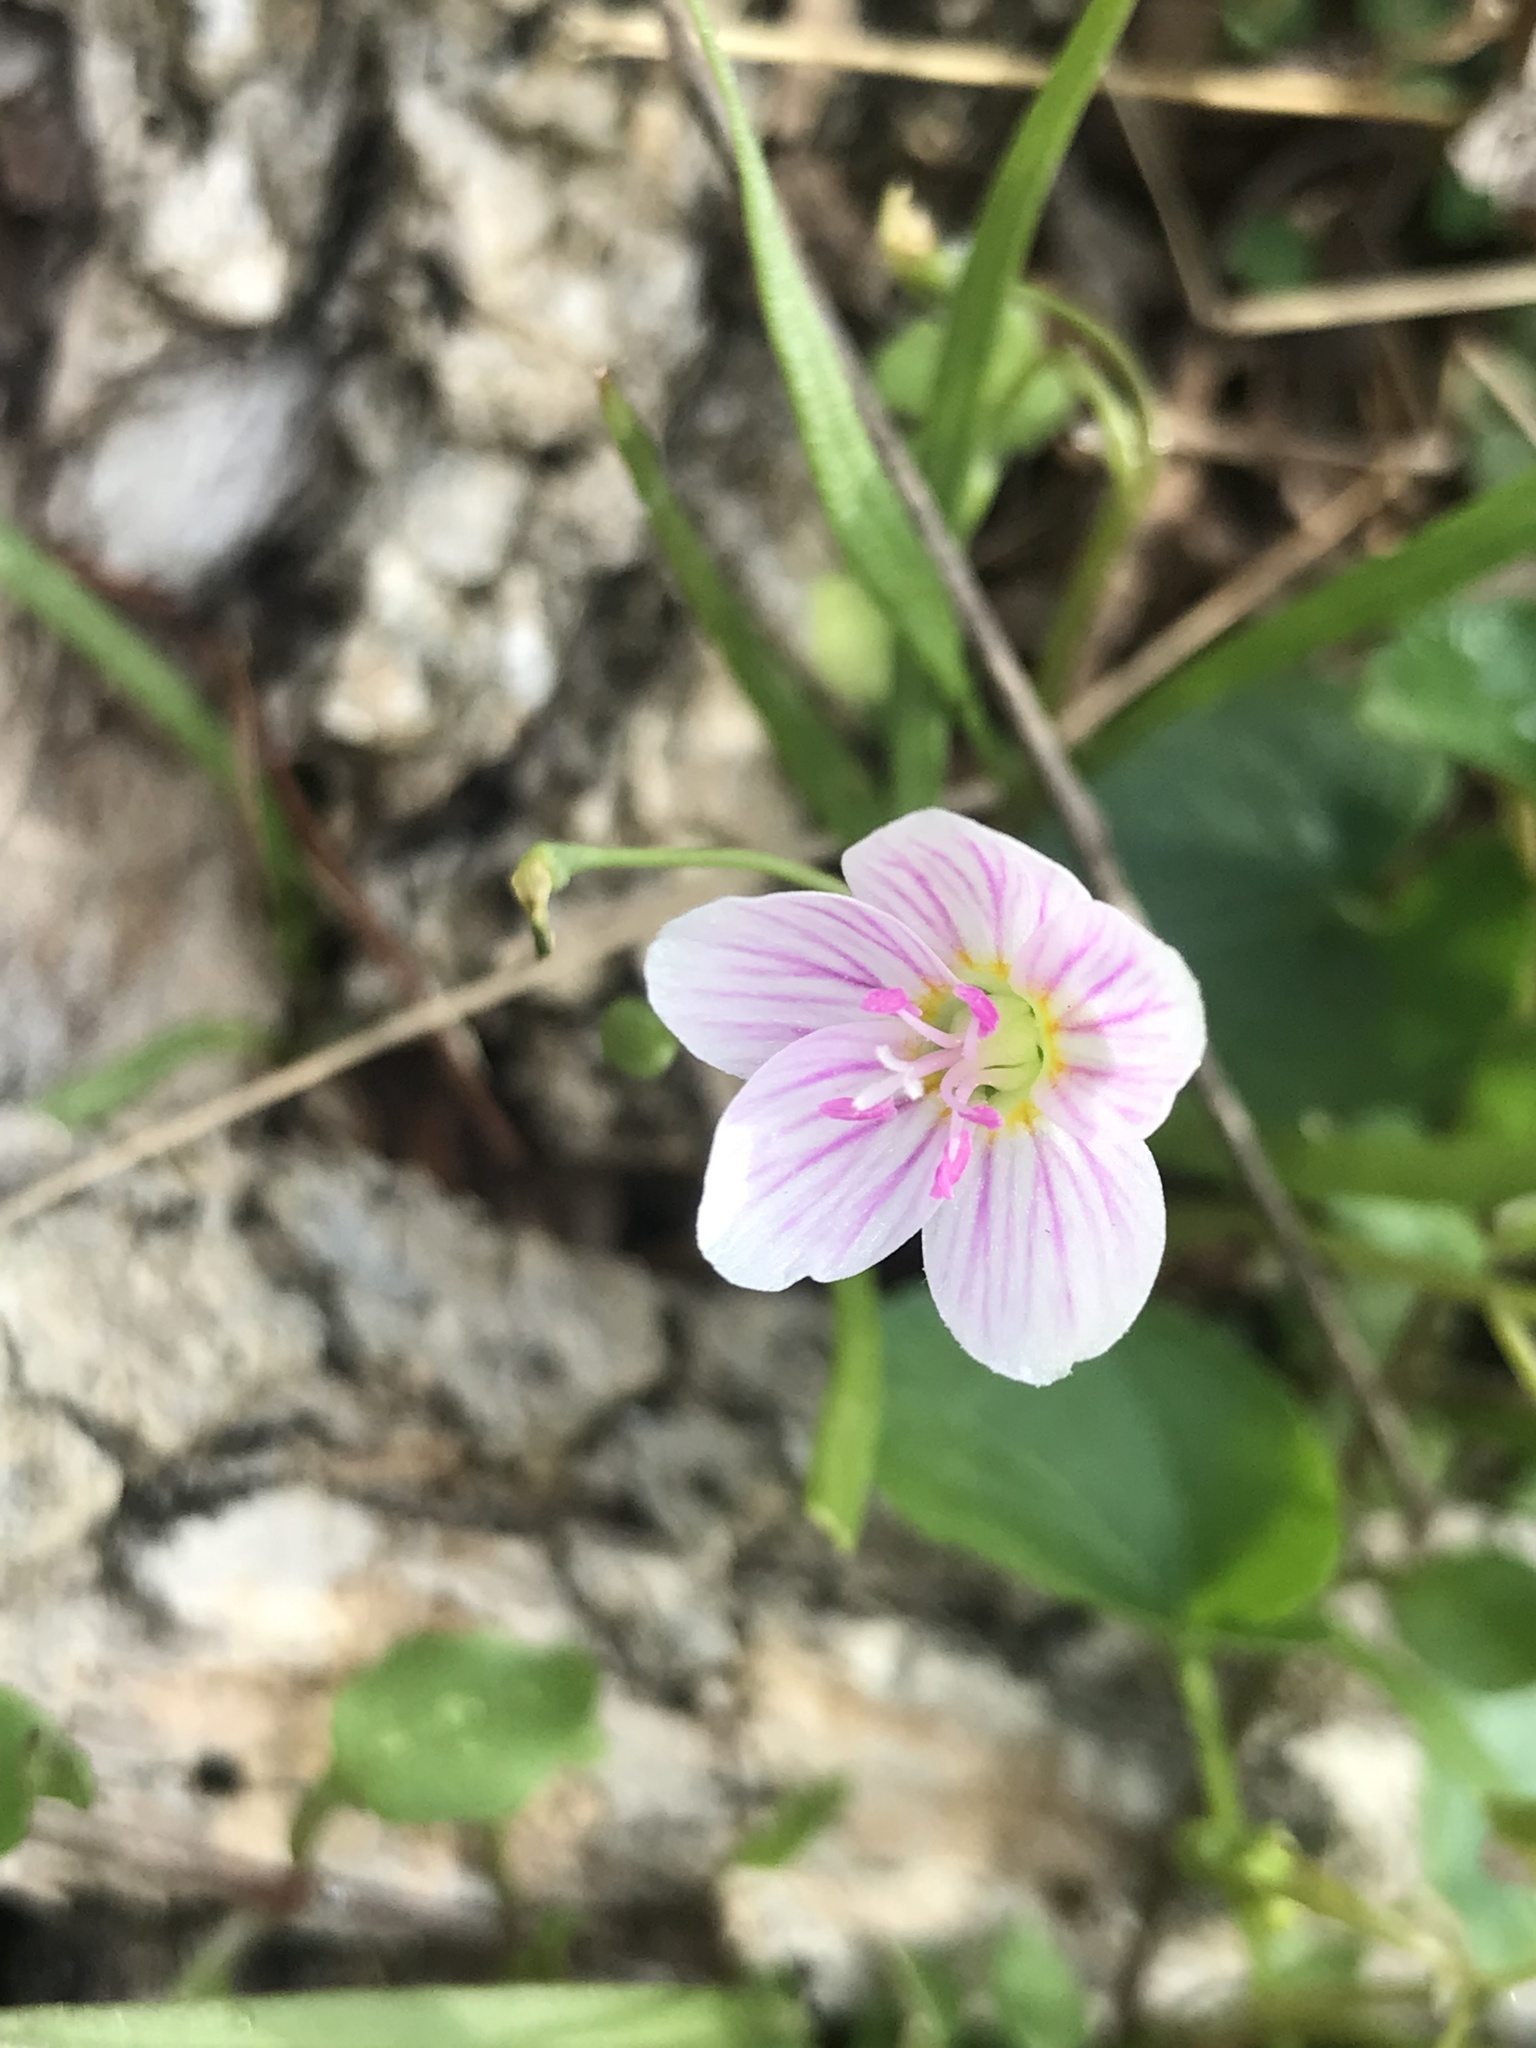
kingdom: Plantae
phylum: Tracheophyta
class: Magnoliopsida
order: Caryophyllales
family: Montiaceae
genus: Claytonia
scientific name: Claytonia virginica
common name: Virginia springbeauty
